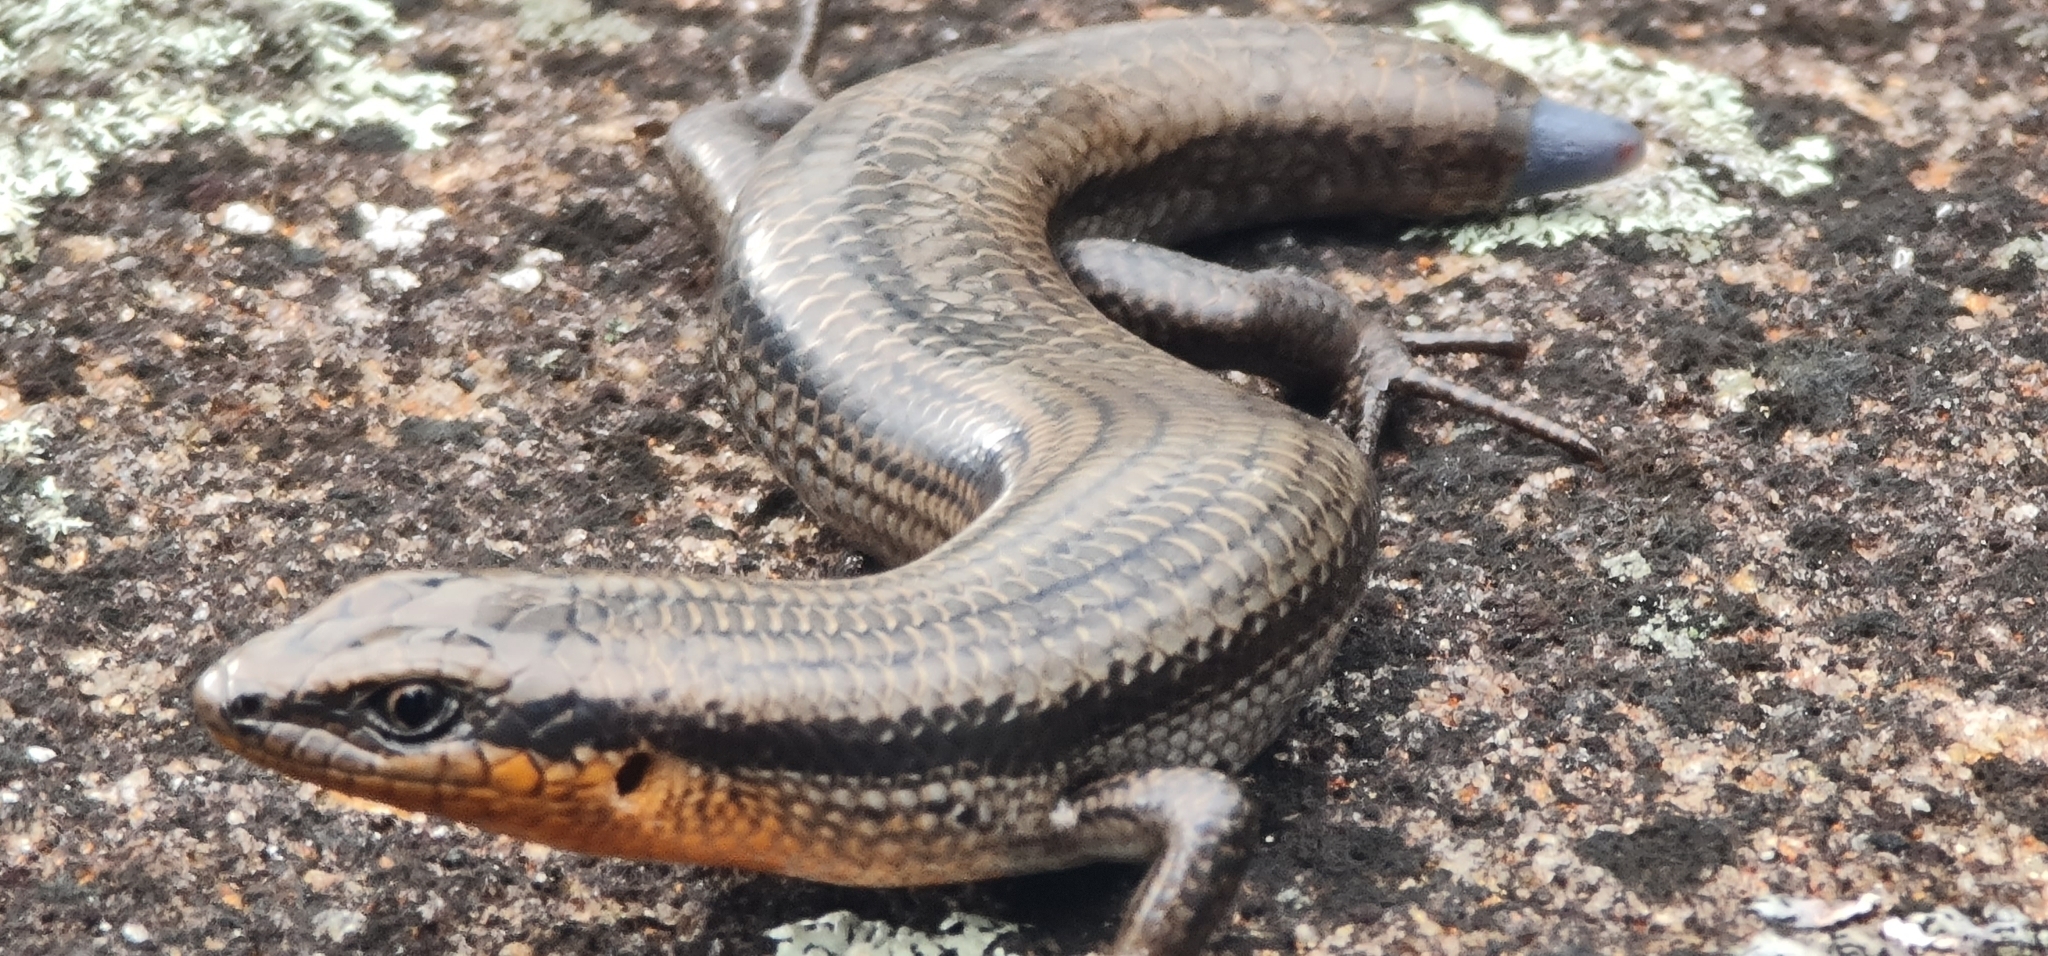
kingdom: Animalia
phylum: Chordata
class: Squamata
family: Scincidae
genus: Acritoscincus
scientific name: Acritoscincus platynotus
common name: Red-throated cool-skink
